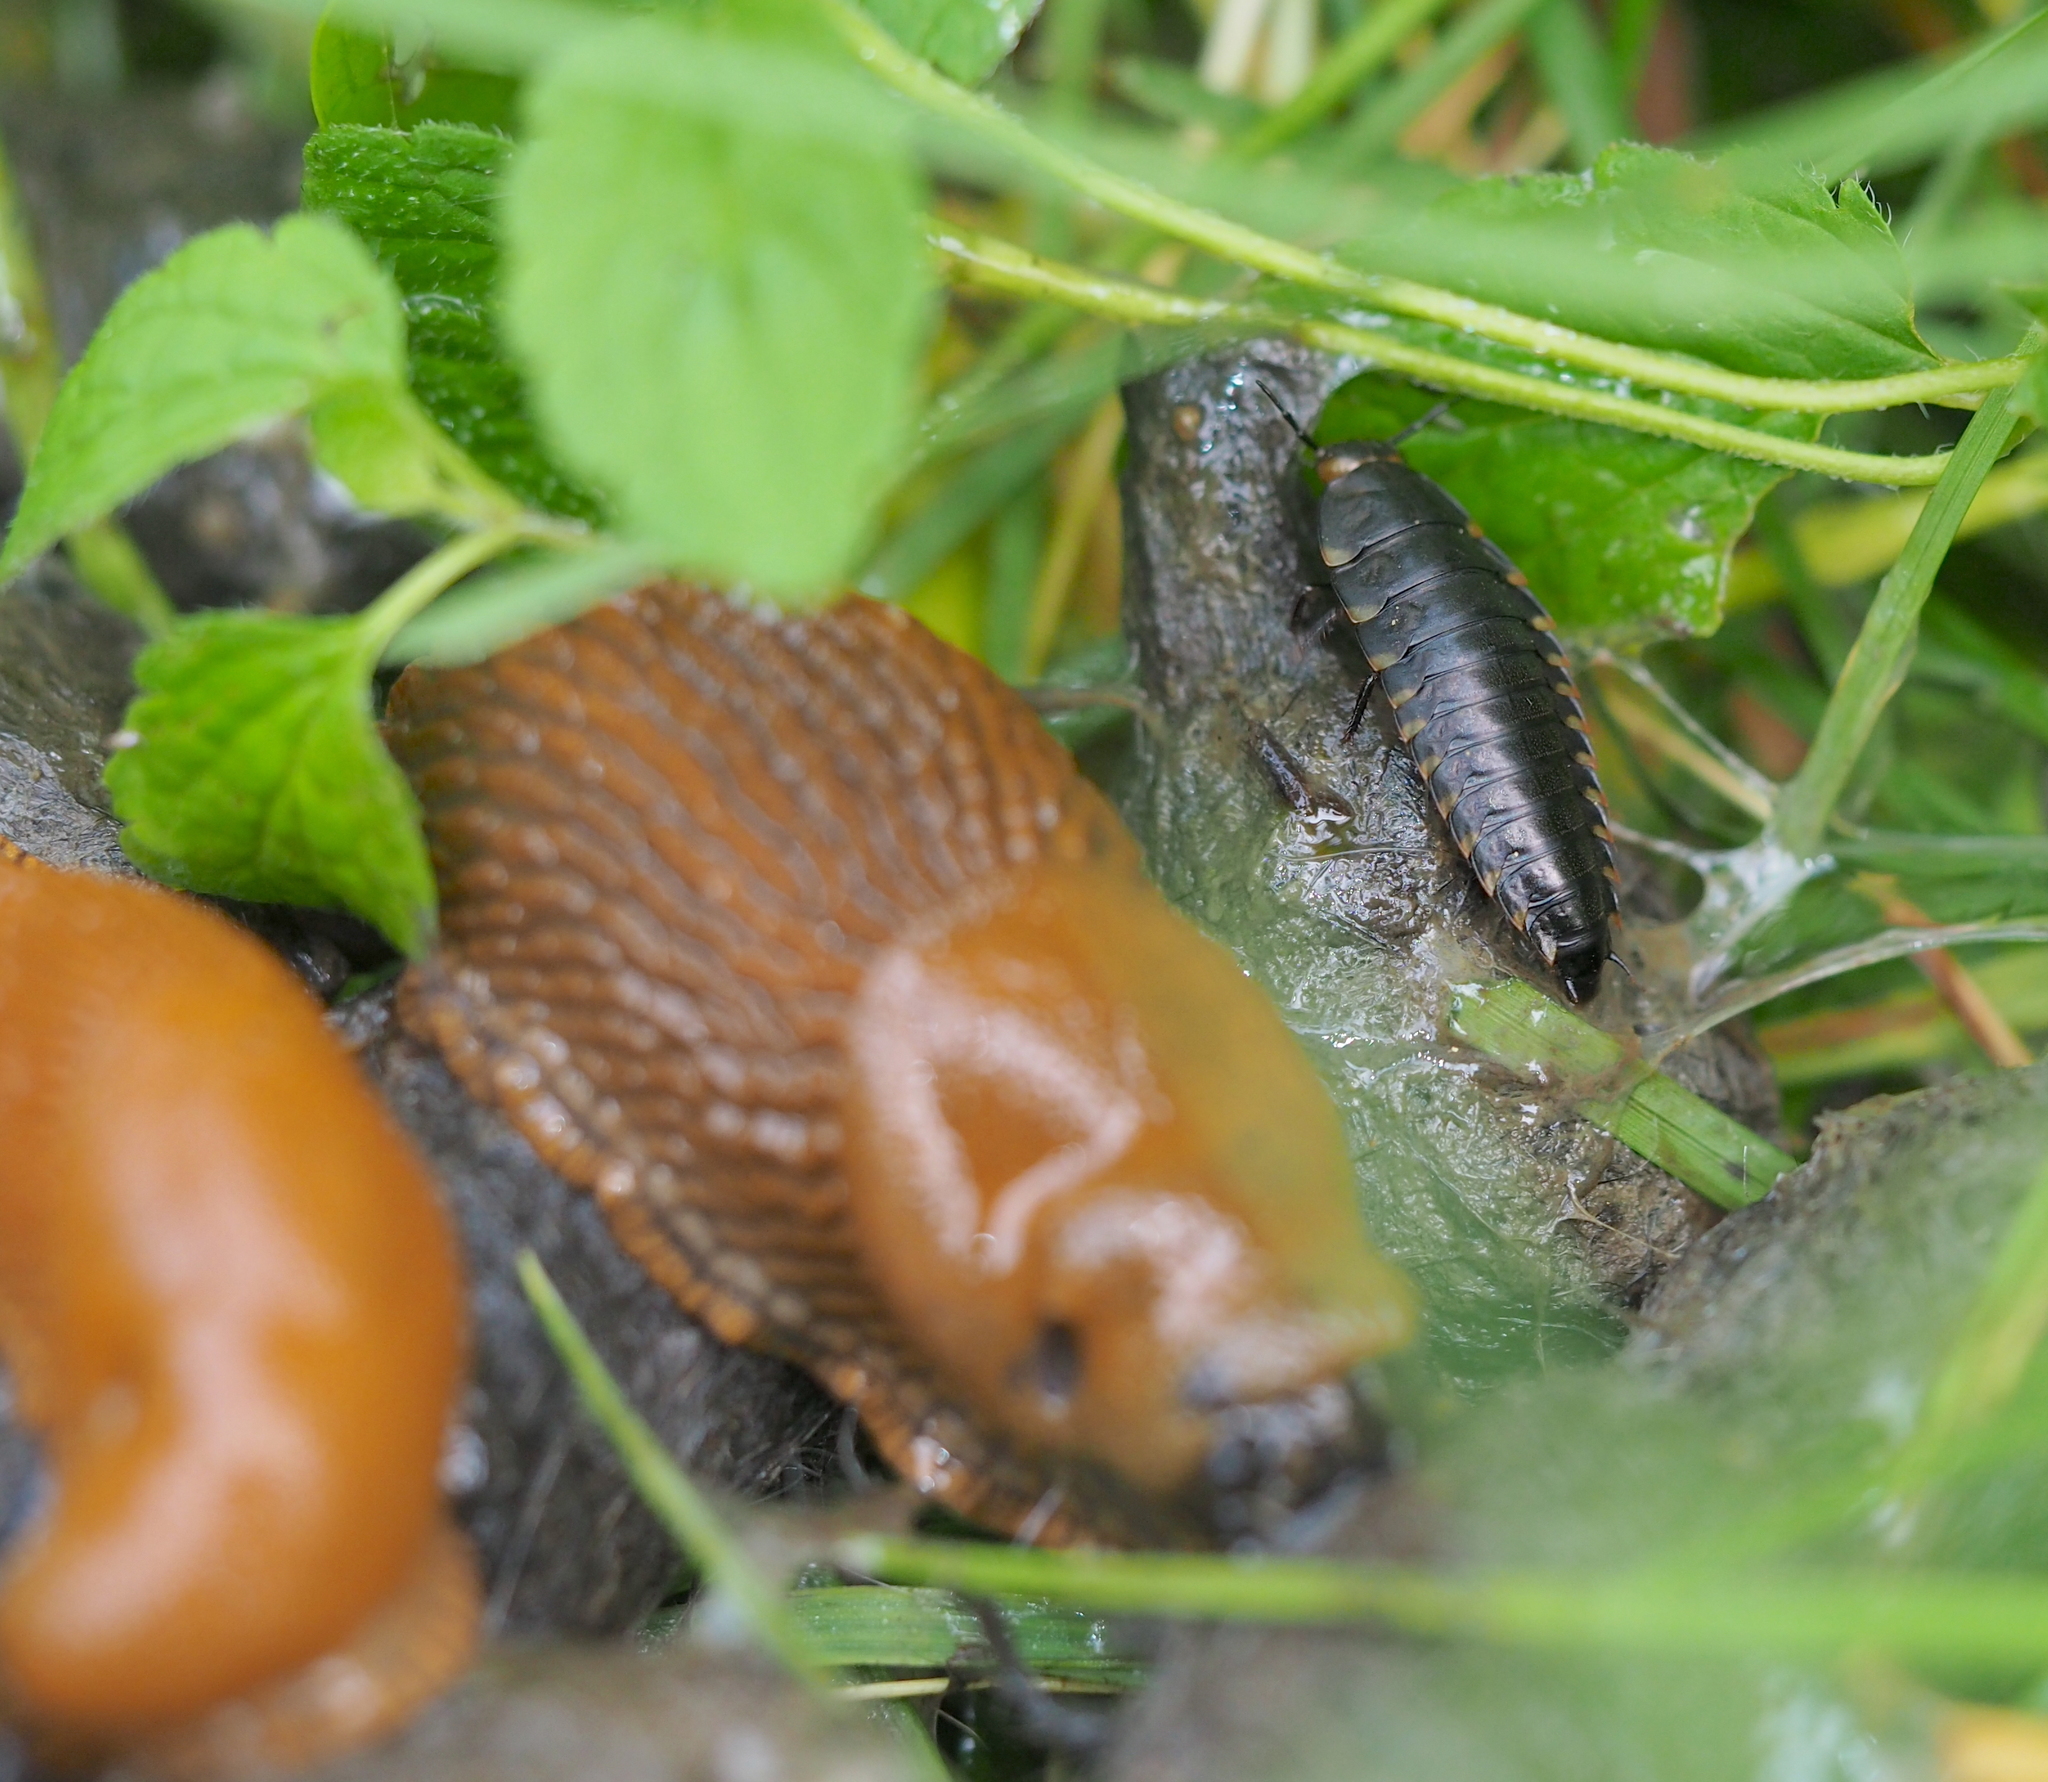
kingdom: Animalia
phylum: Arthropoda
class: Insecta
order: Coleoptera
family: Staphylinidae
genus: Silpha
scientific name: Silpha tristis
